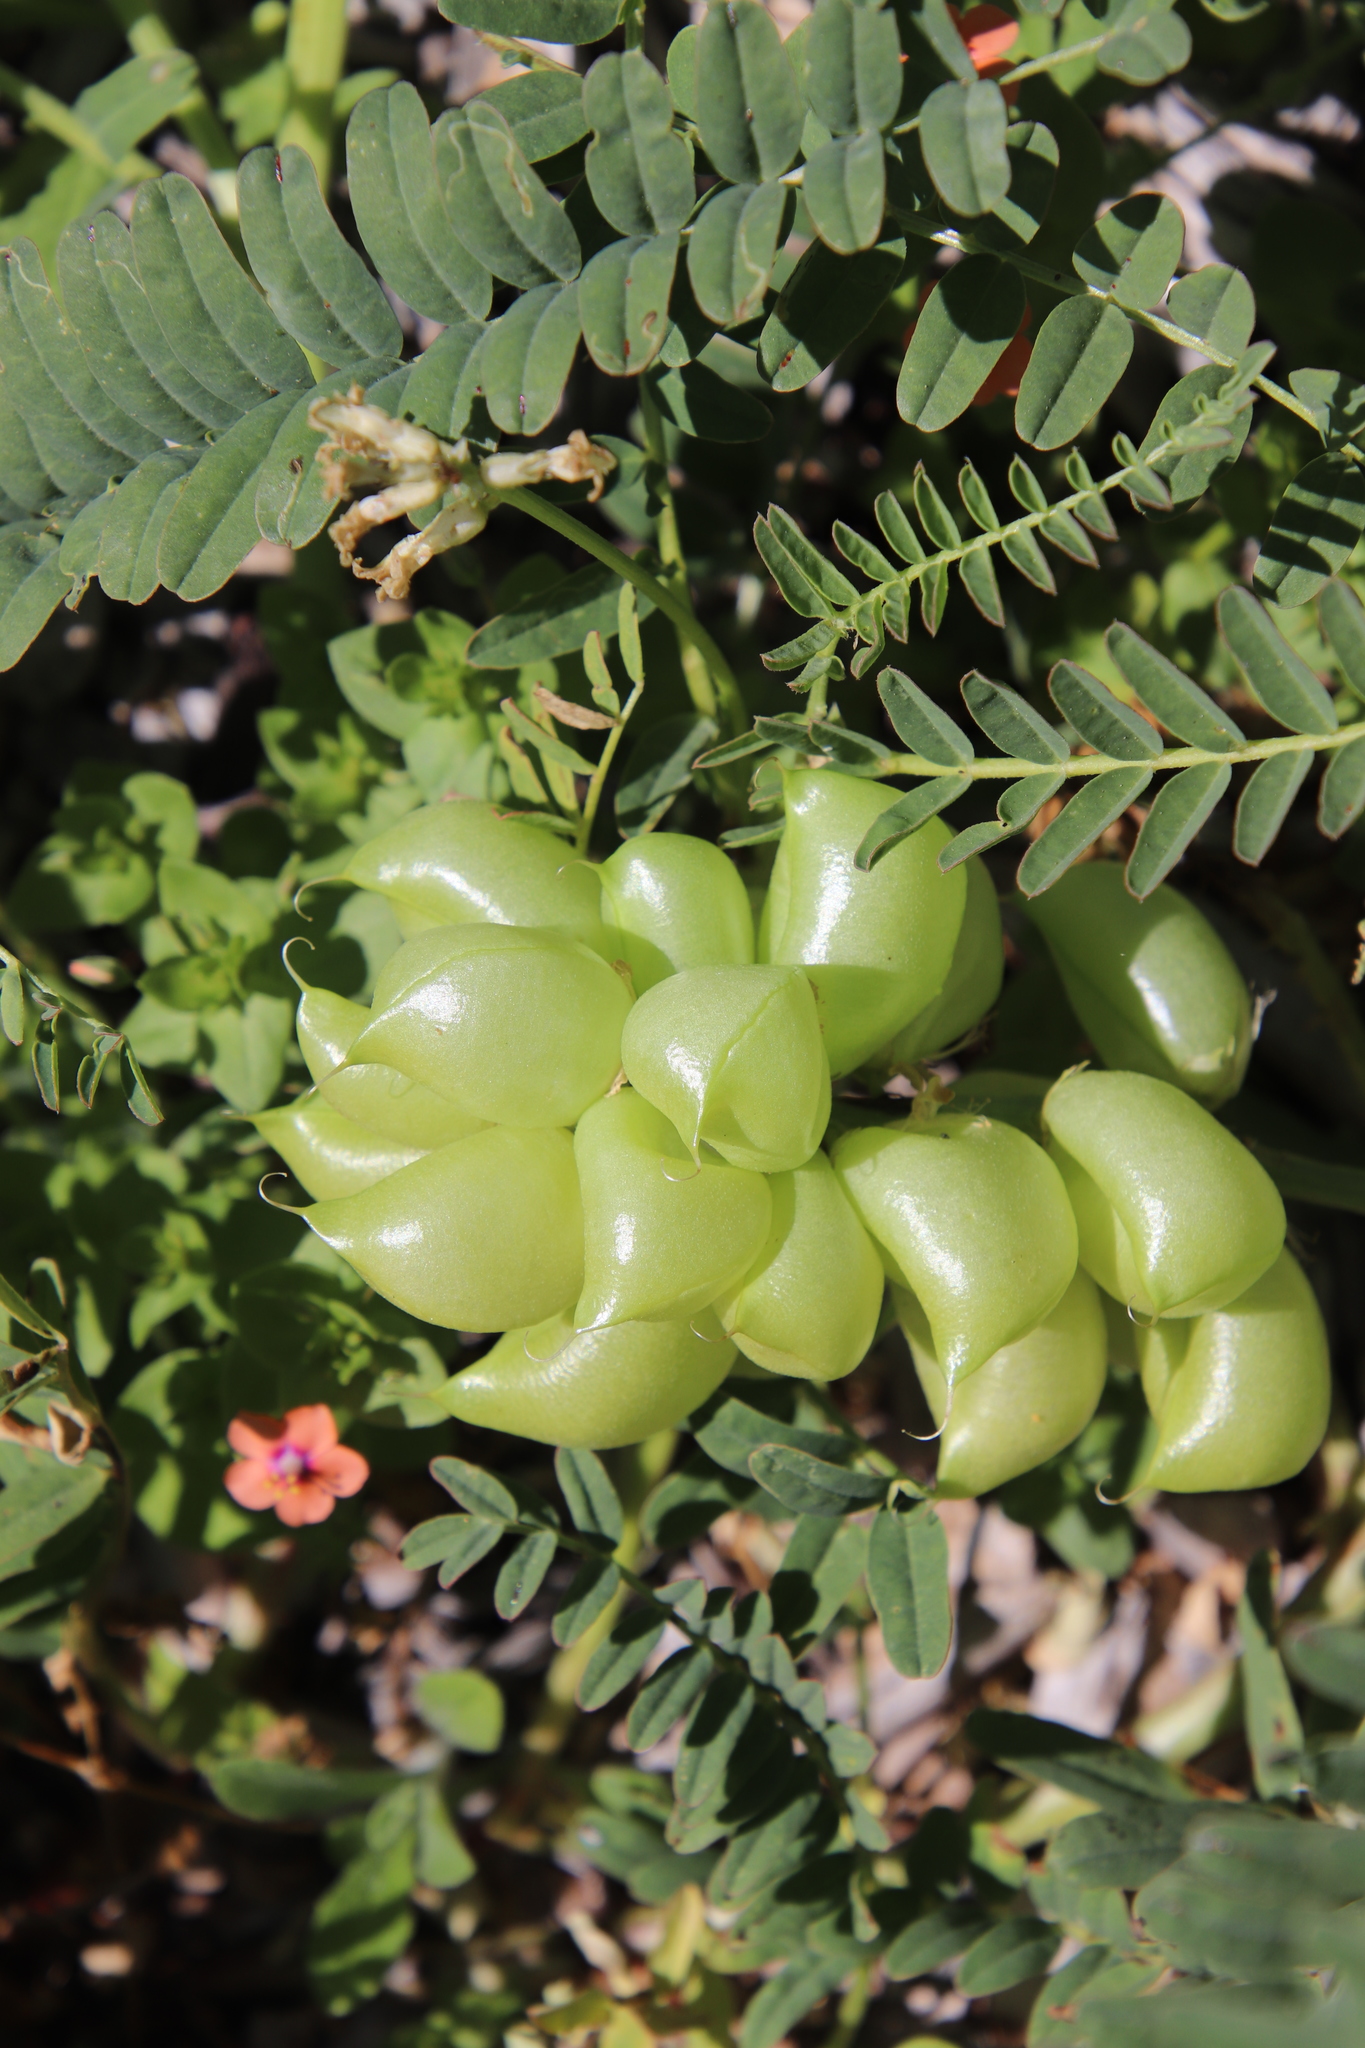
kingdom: Plantae
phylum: Tracheophyta
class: Magnoliopsida
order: Fabales
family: Fabaceae
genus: Astragalus
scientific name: Astragalus pomonensis
